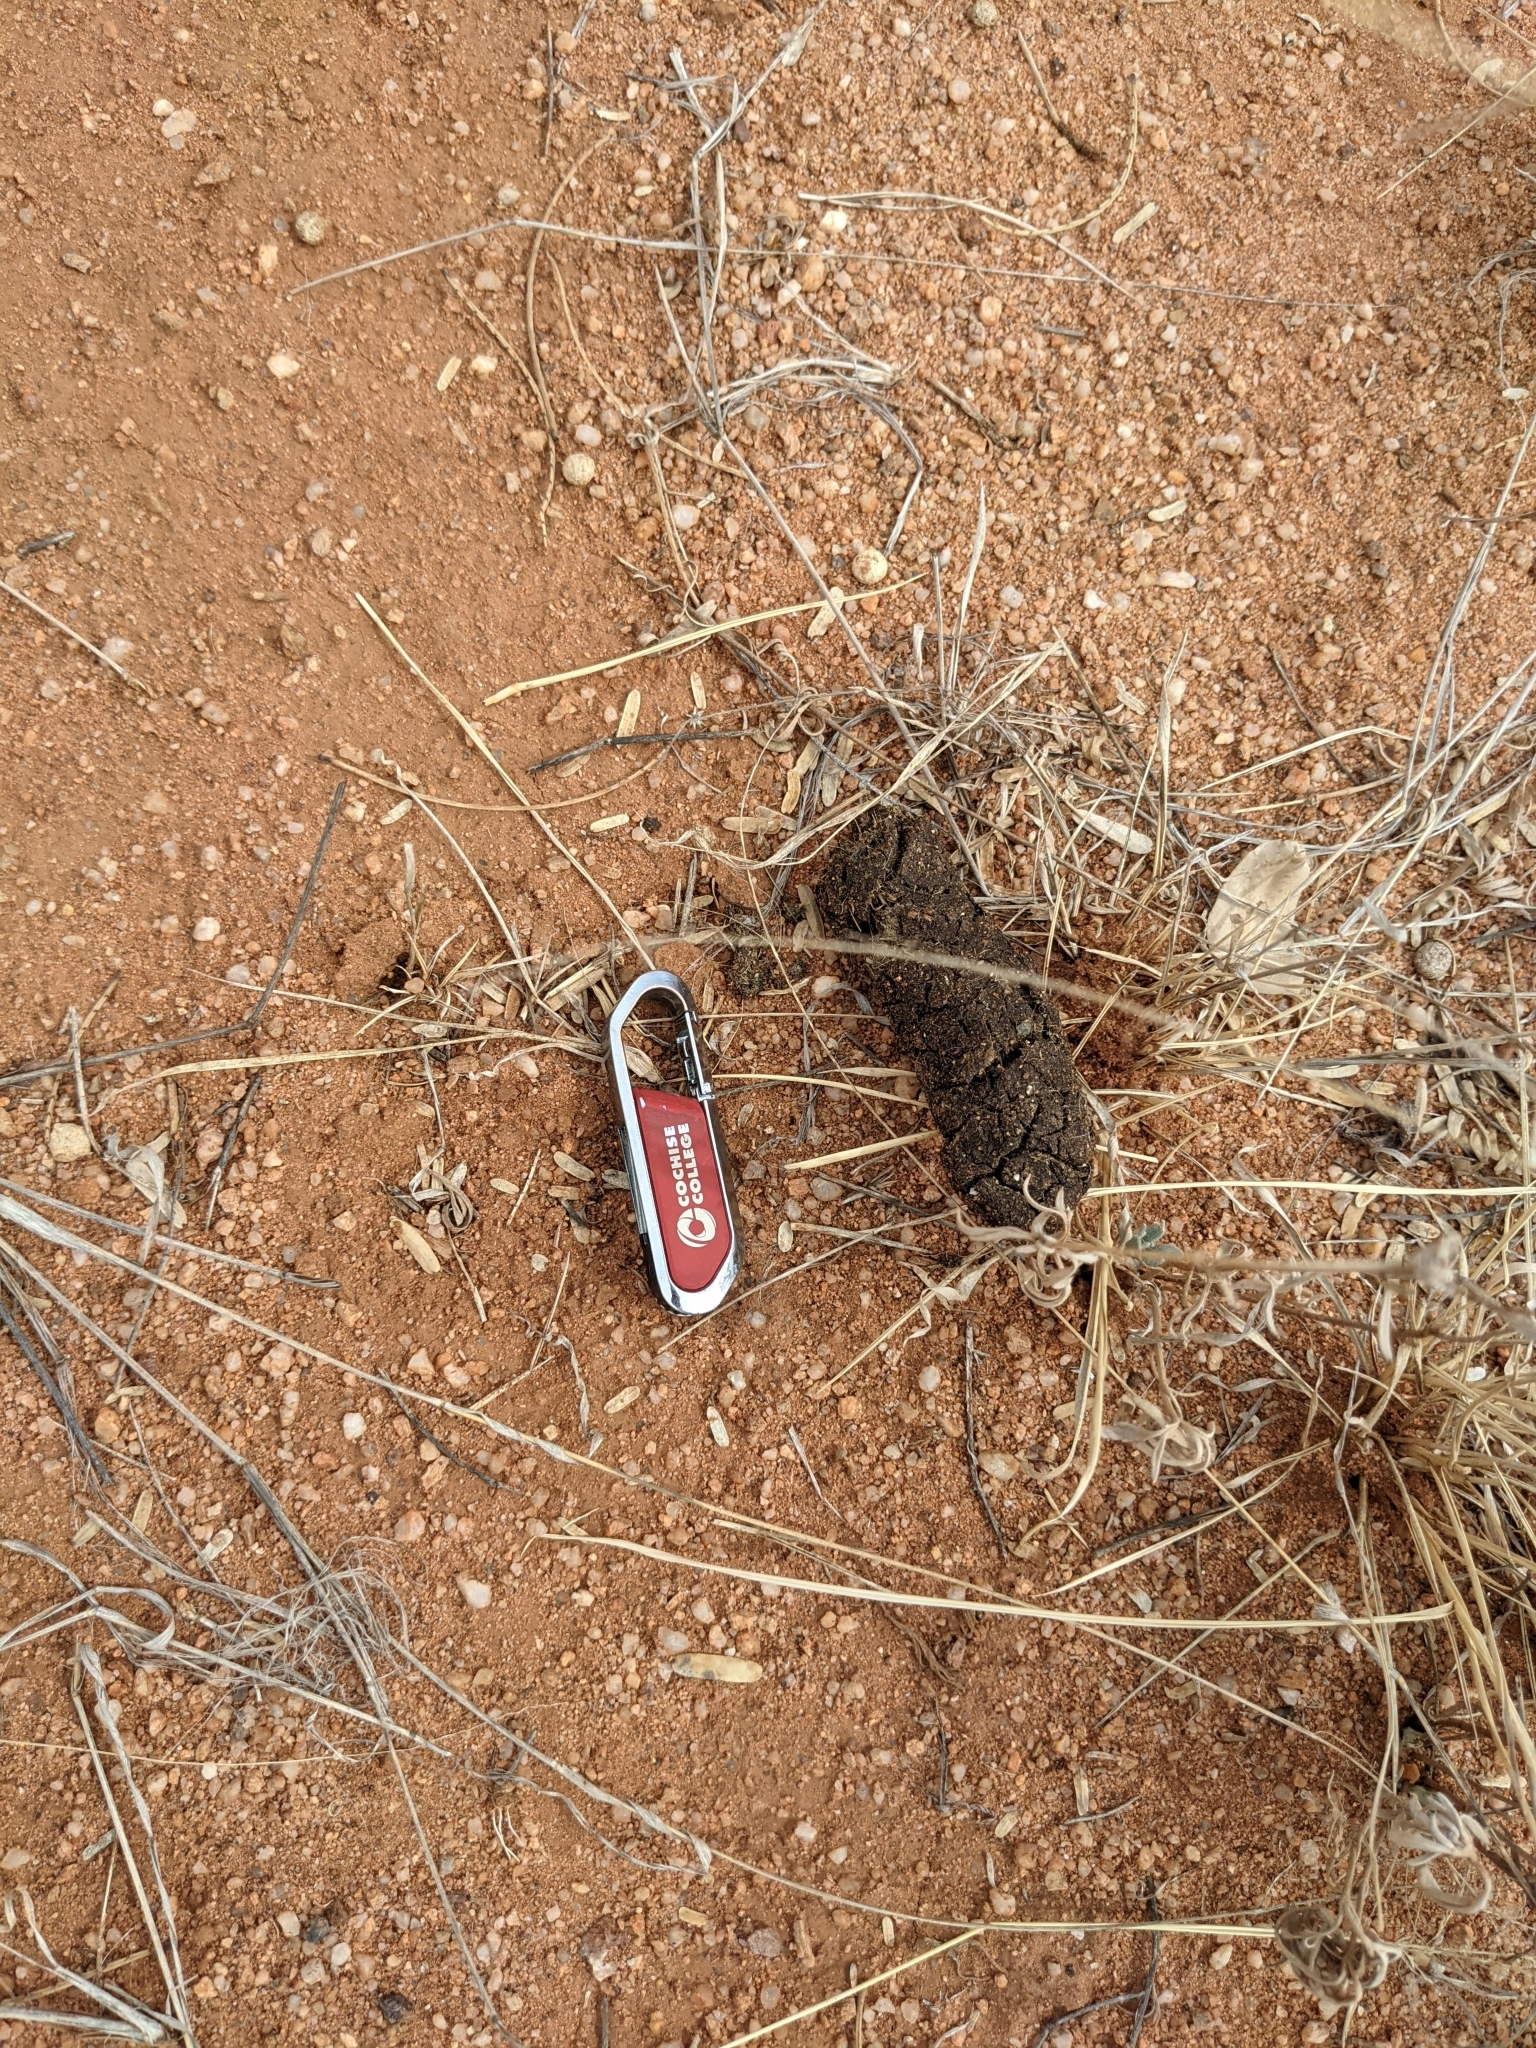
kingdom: Animalia
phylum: Chordata
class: Mammalia
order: Artiodactyla
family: Tayassuidae
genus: Pecari
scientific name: Pecari tajacu
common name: Collared peccary
